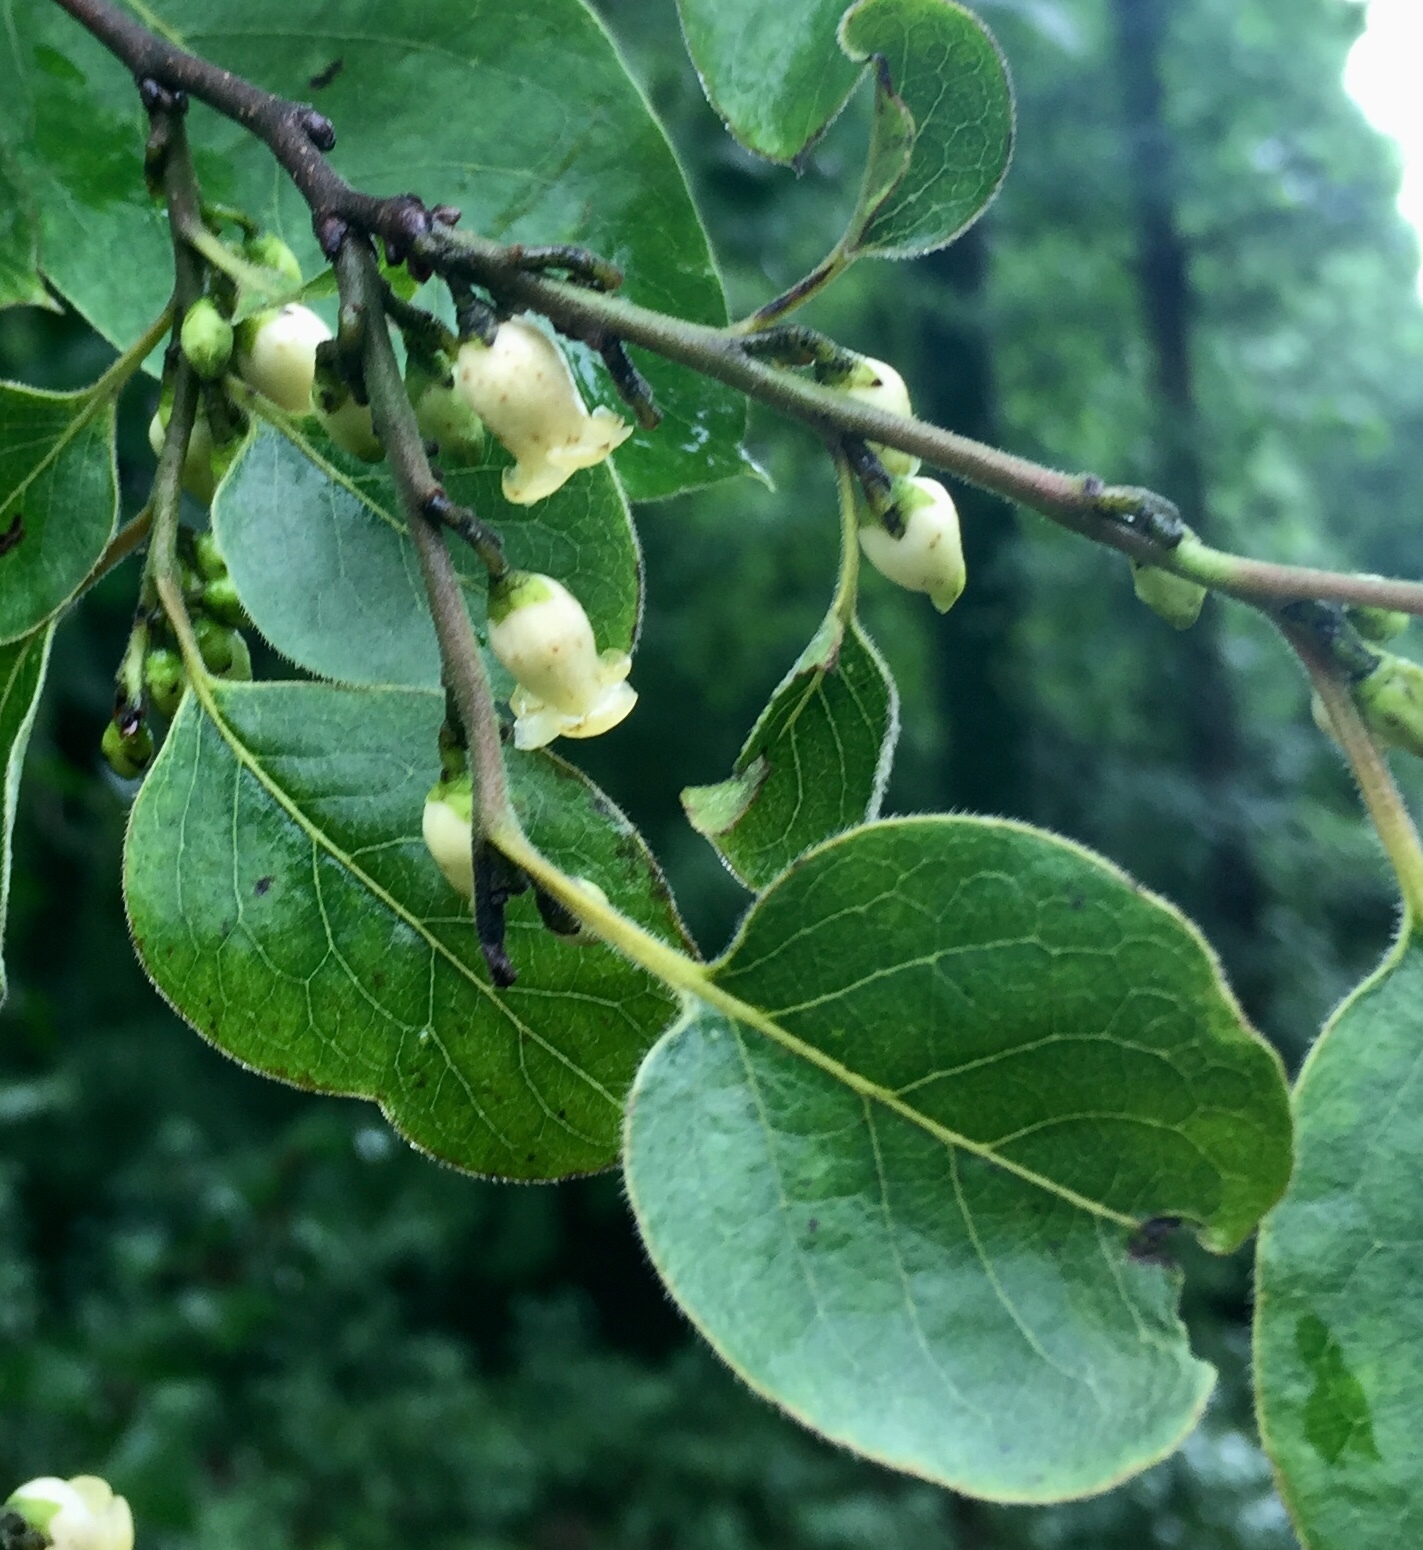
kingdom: Plantae
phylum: Tracheophyta
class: Magnoliopsida
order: Ericales
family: Ebenaceae
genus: Diospyros
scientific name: Diospyros virginiana
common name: Persimmon
